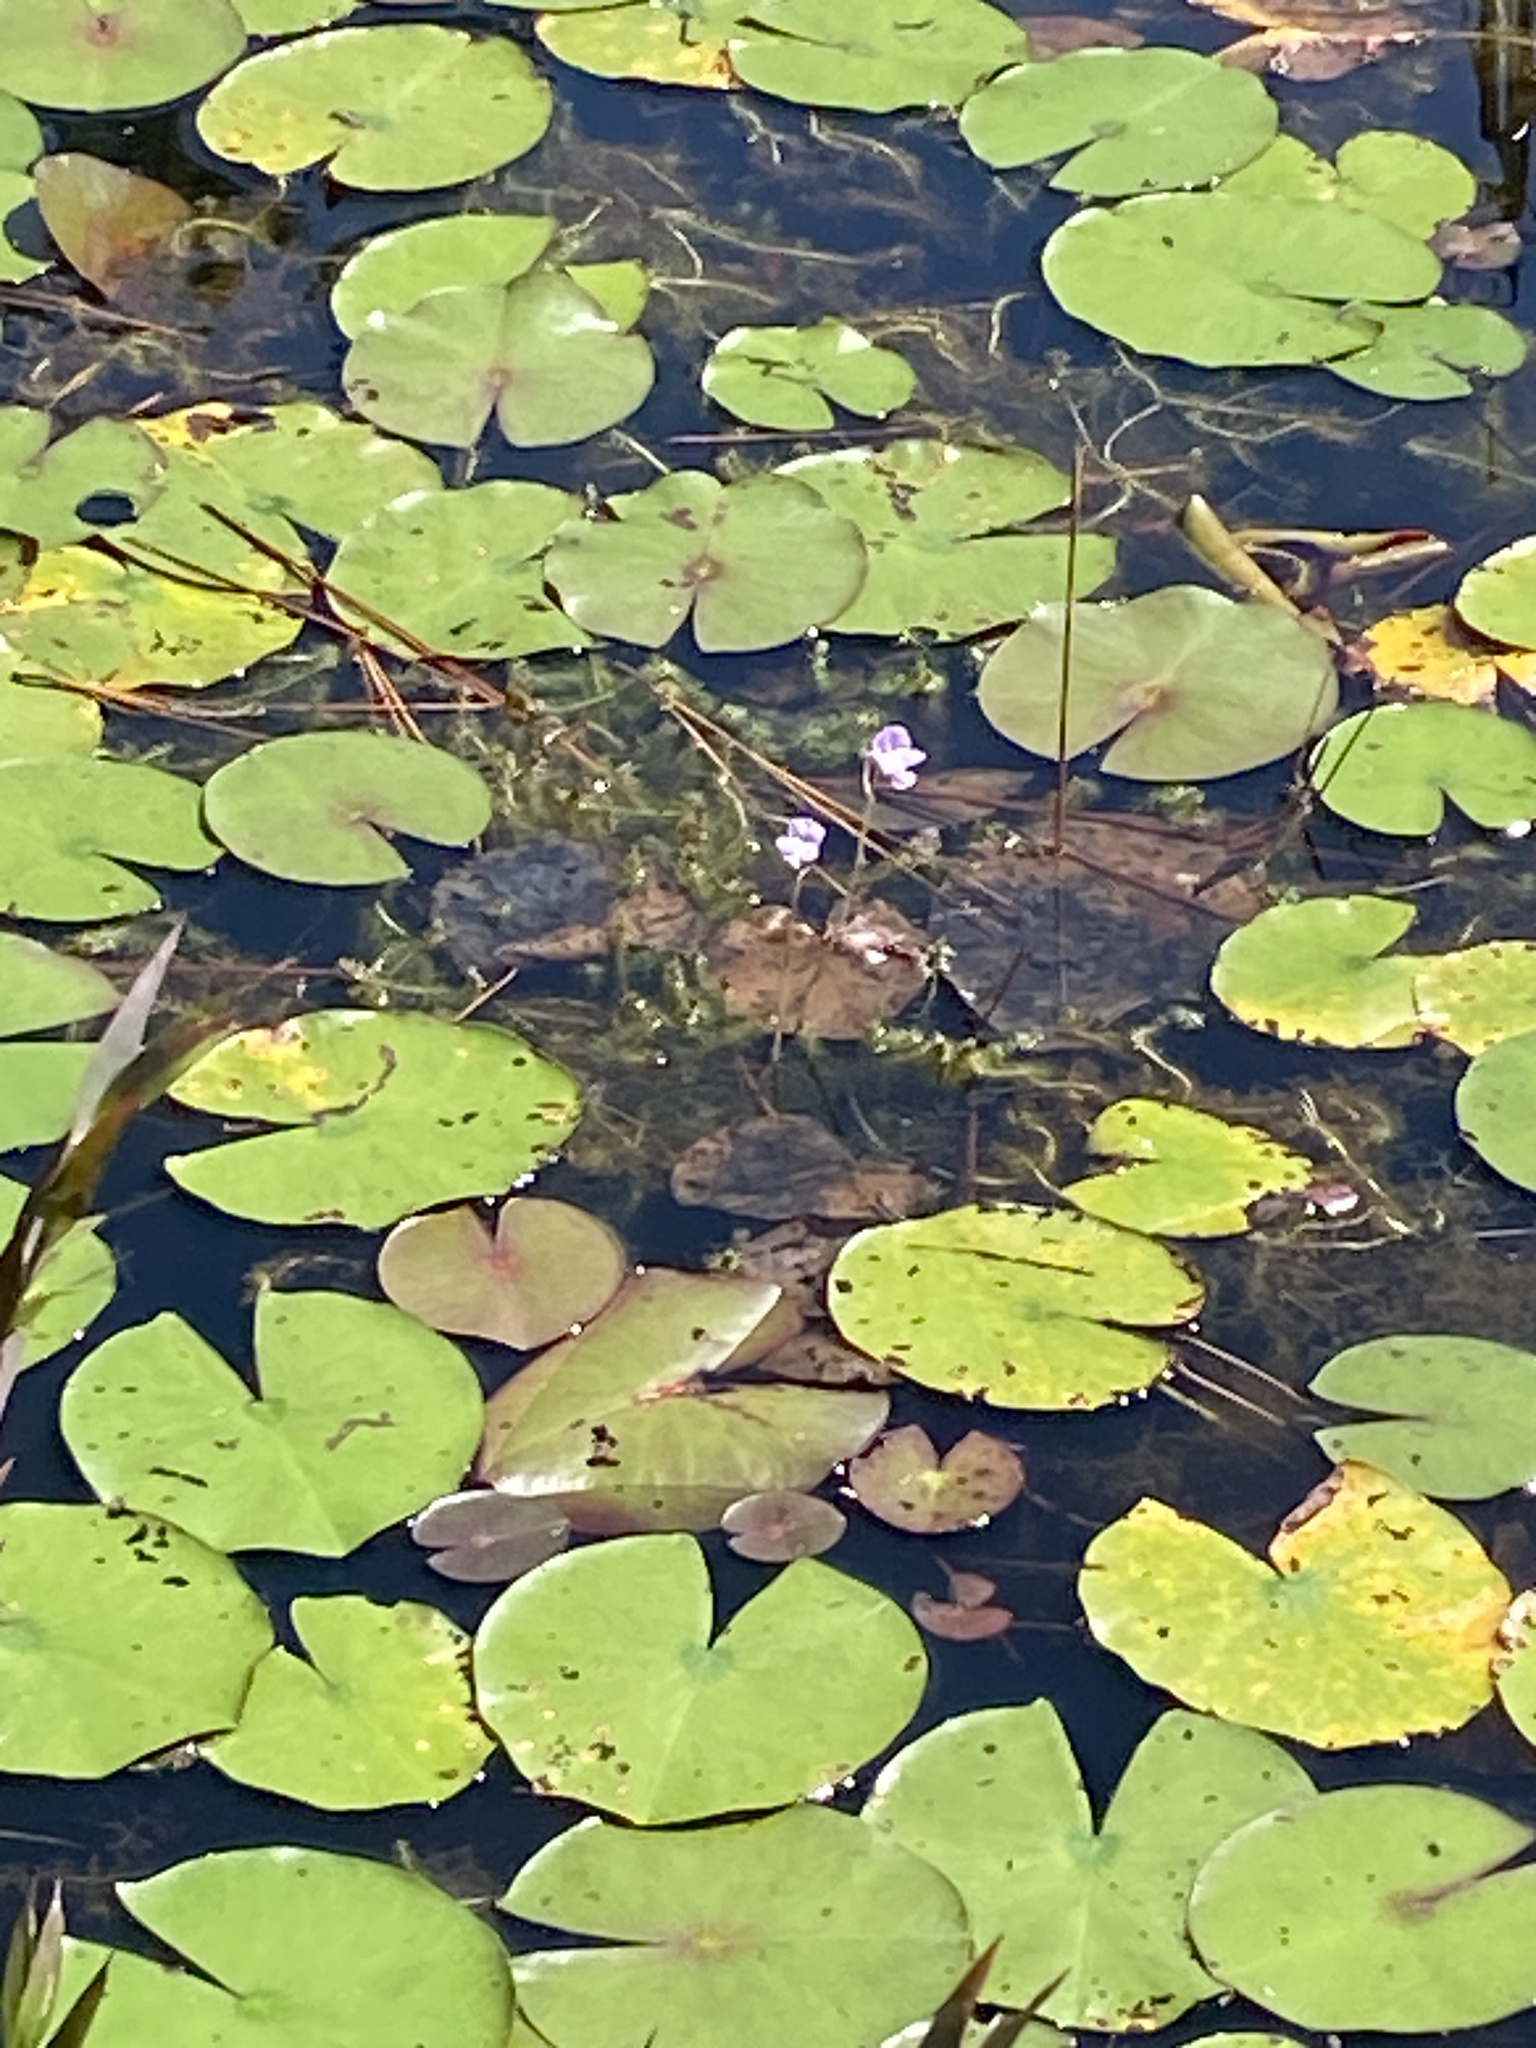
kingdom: Plantae
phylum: Tracheophyta
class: Magnoliopsida
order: Lamiales
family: Lentibulariaceae
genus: Utricularia
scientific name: Utricularia purpurea
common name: Eastern purple bladderwort
